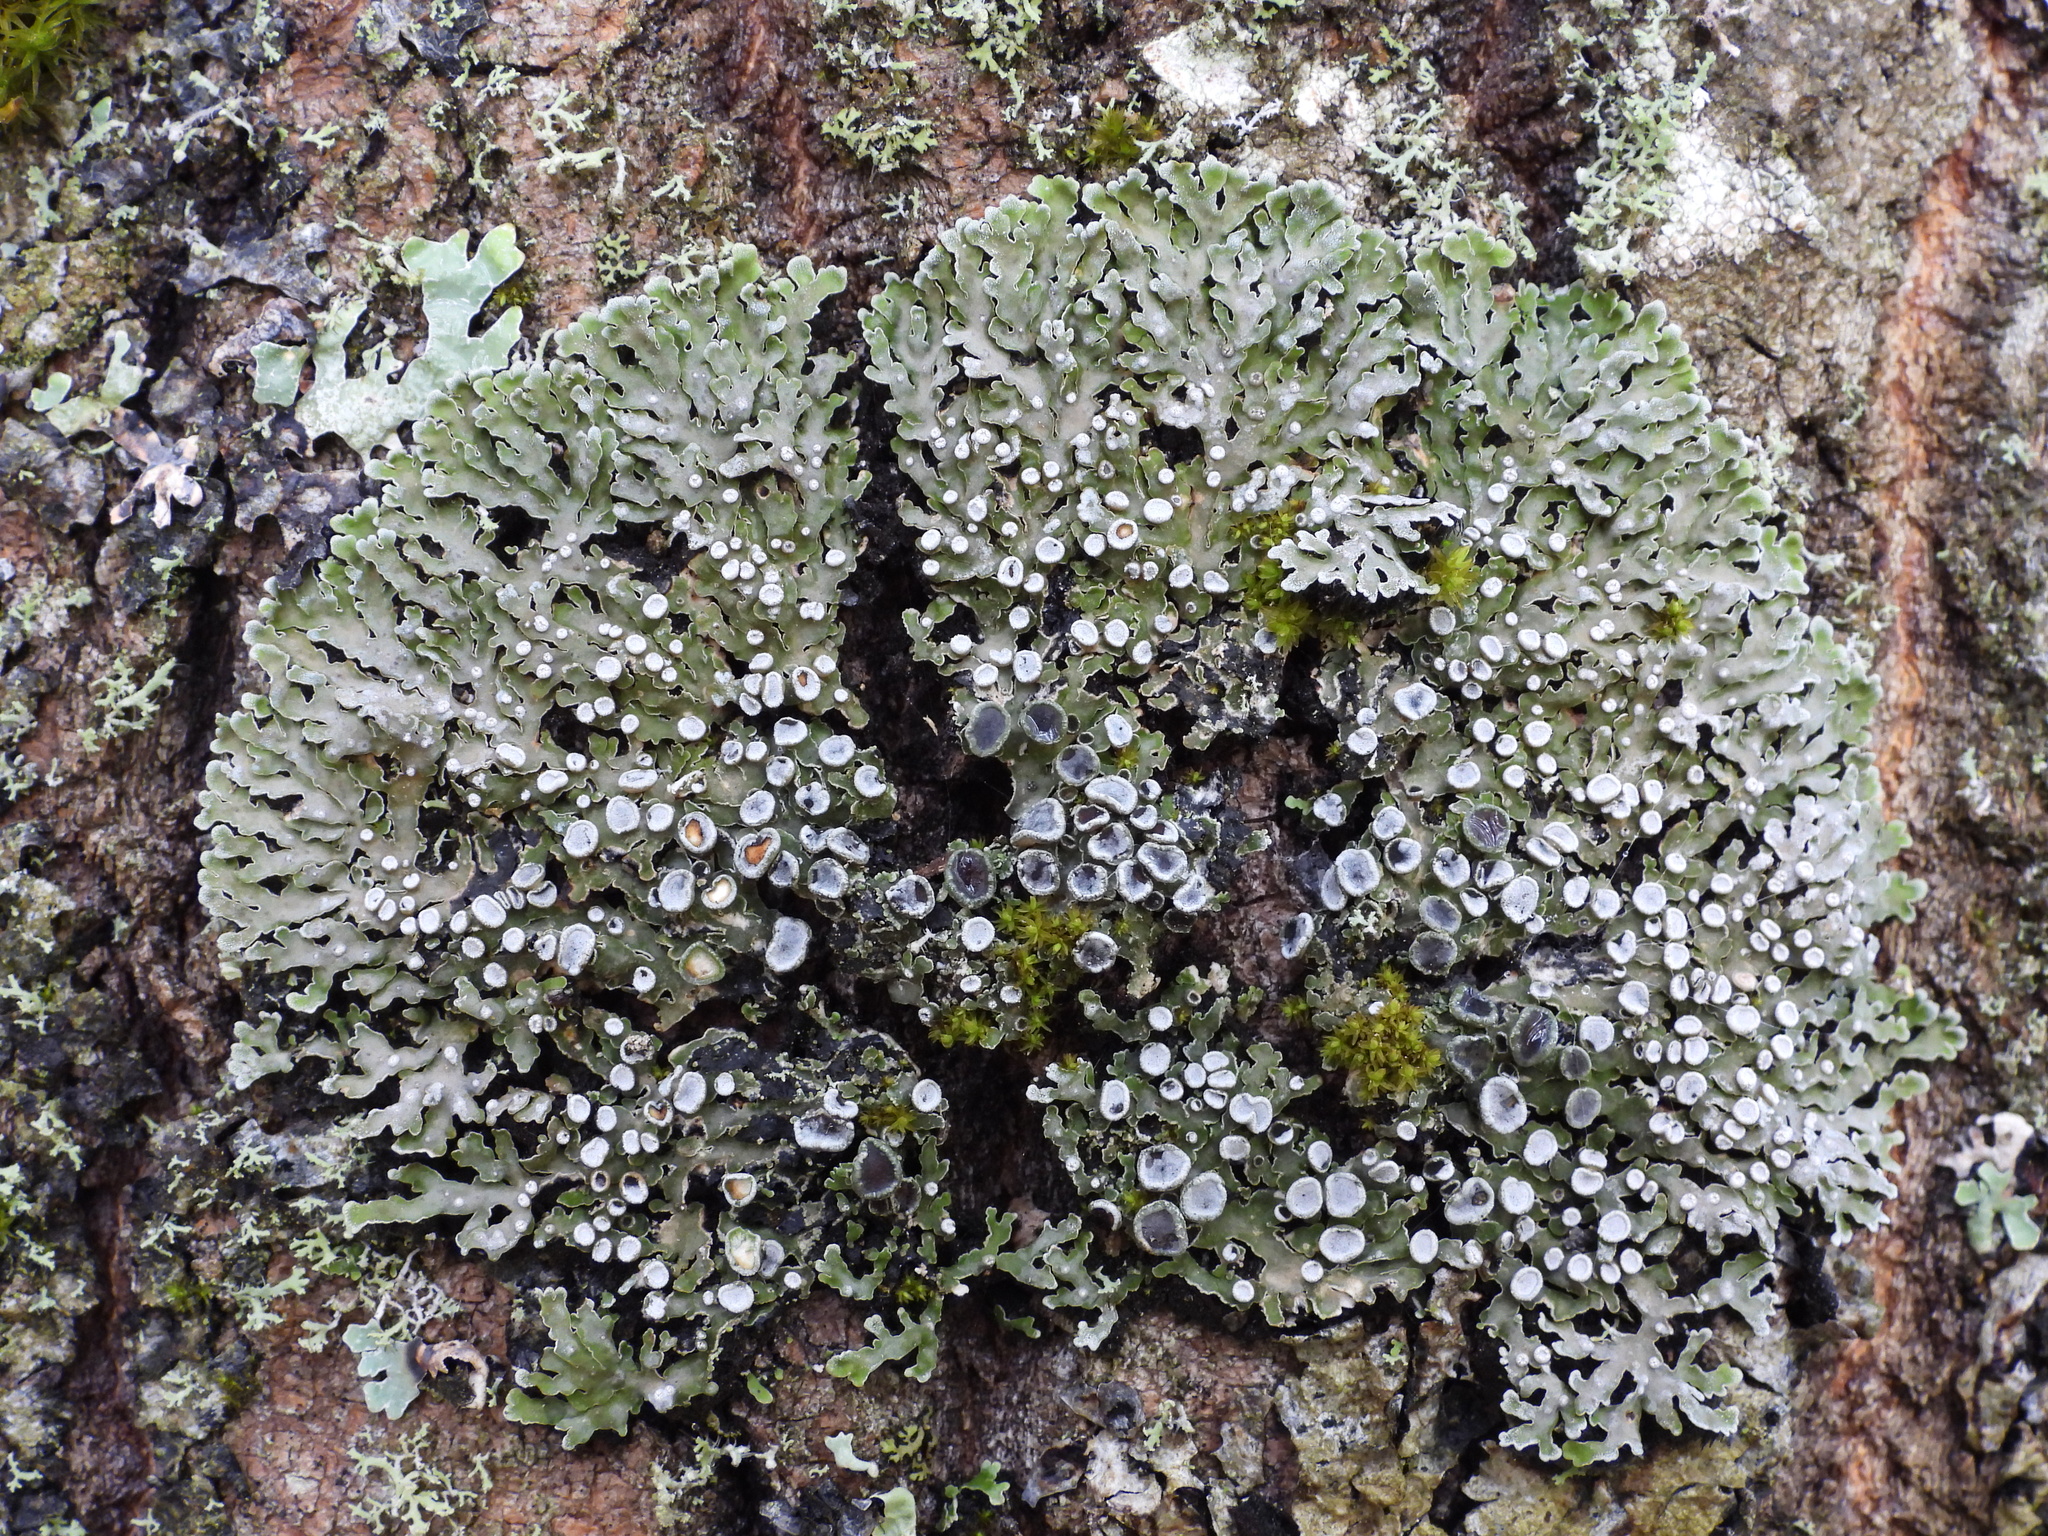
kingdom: Fungi
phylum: Ascomycota
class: Lecanoromycetes
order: Caliciales
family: Physciaceae
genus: Physconia
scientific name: Physconia distorta
